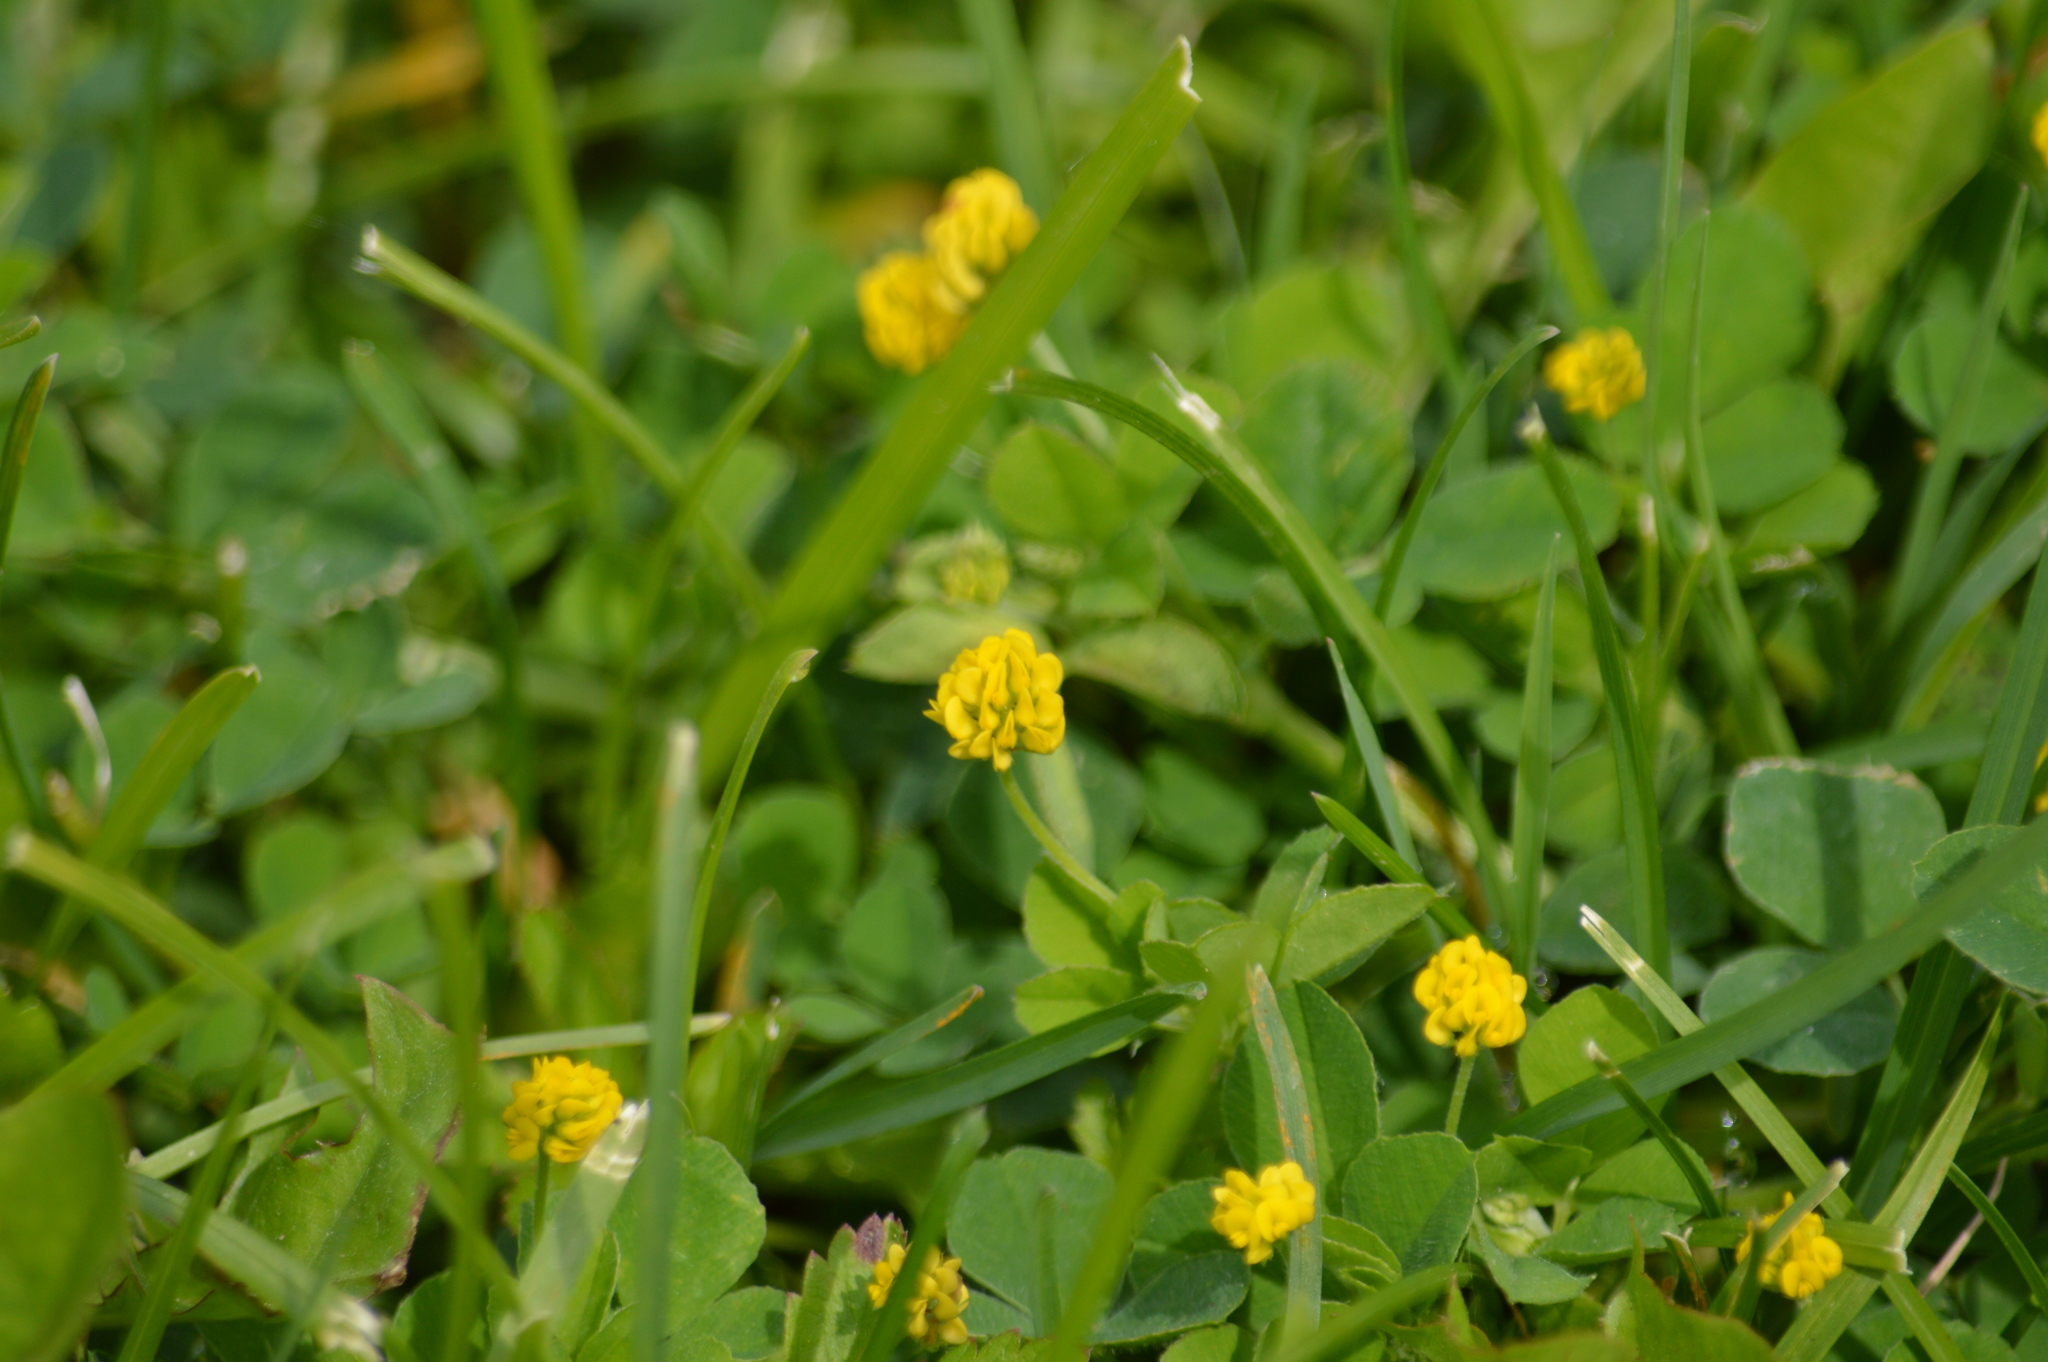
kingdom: Plantae
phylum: Tracheophyta
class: Magnoliopsida
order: Fabales
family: Fabaceae
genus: Medicago
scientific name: Medicago lupulina
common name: Black medick
